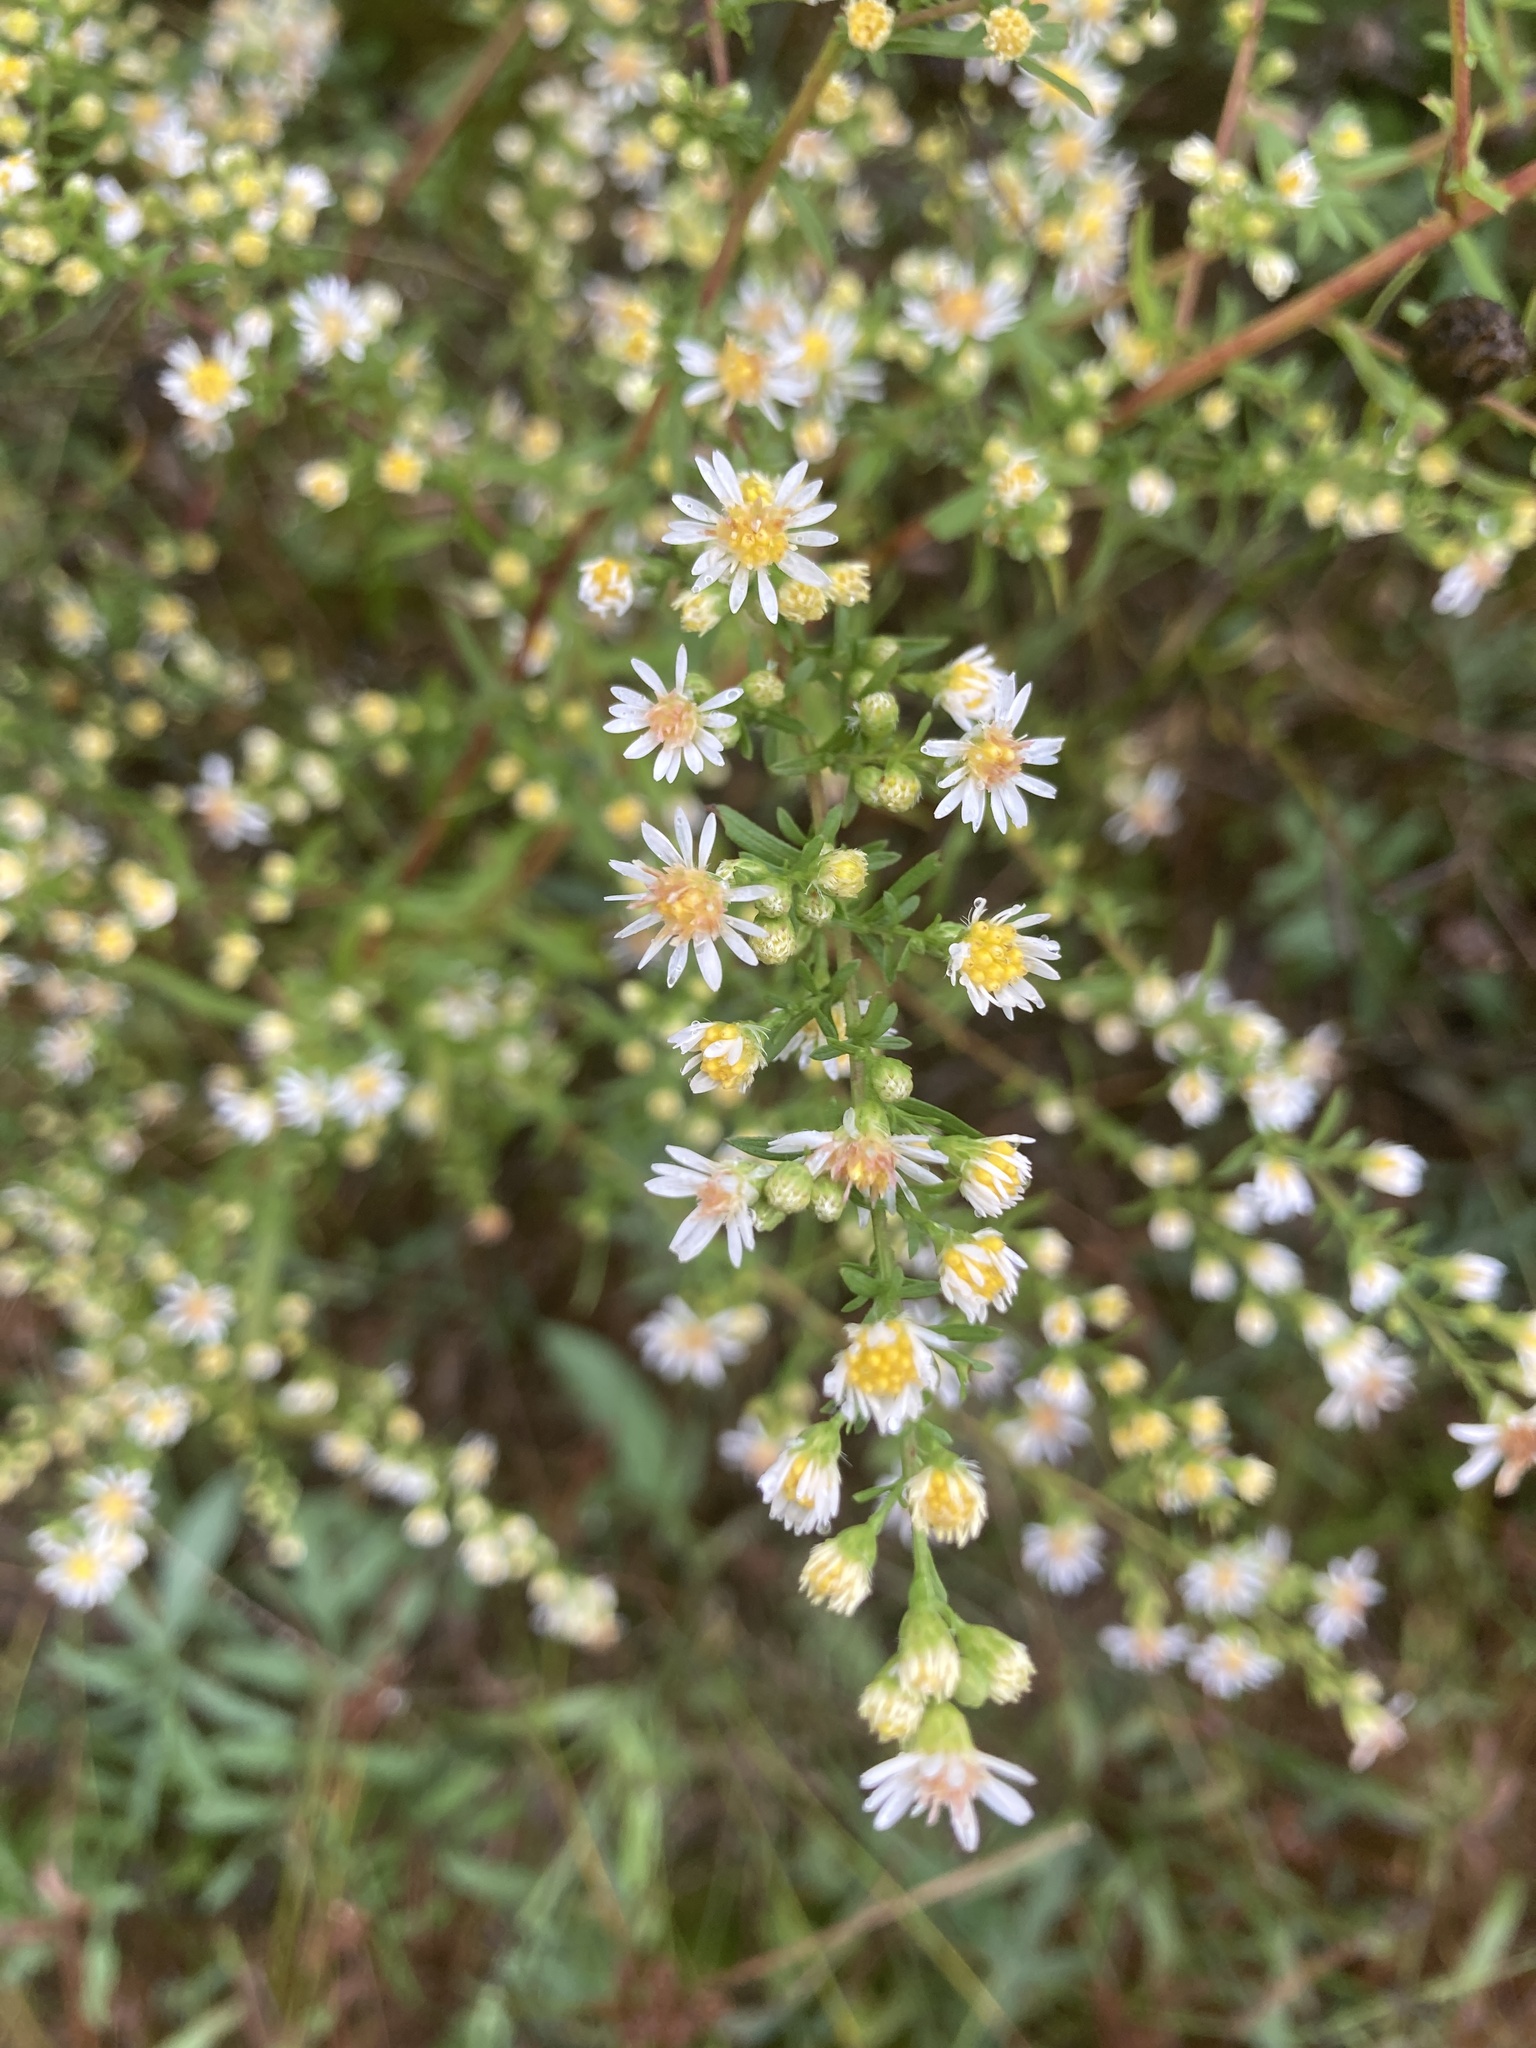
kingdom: Plantae
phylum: Tracheophyta
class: Magnoliopsida
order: Asterales
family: Asteraceae
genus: Symphyotrichum
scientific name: Symphyotrichum racemosum
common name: Small white aster
